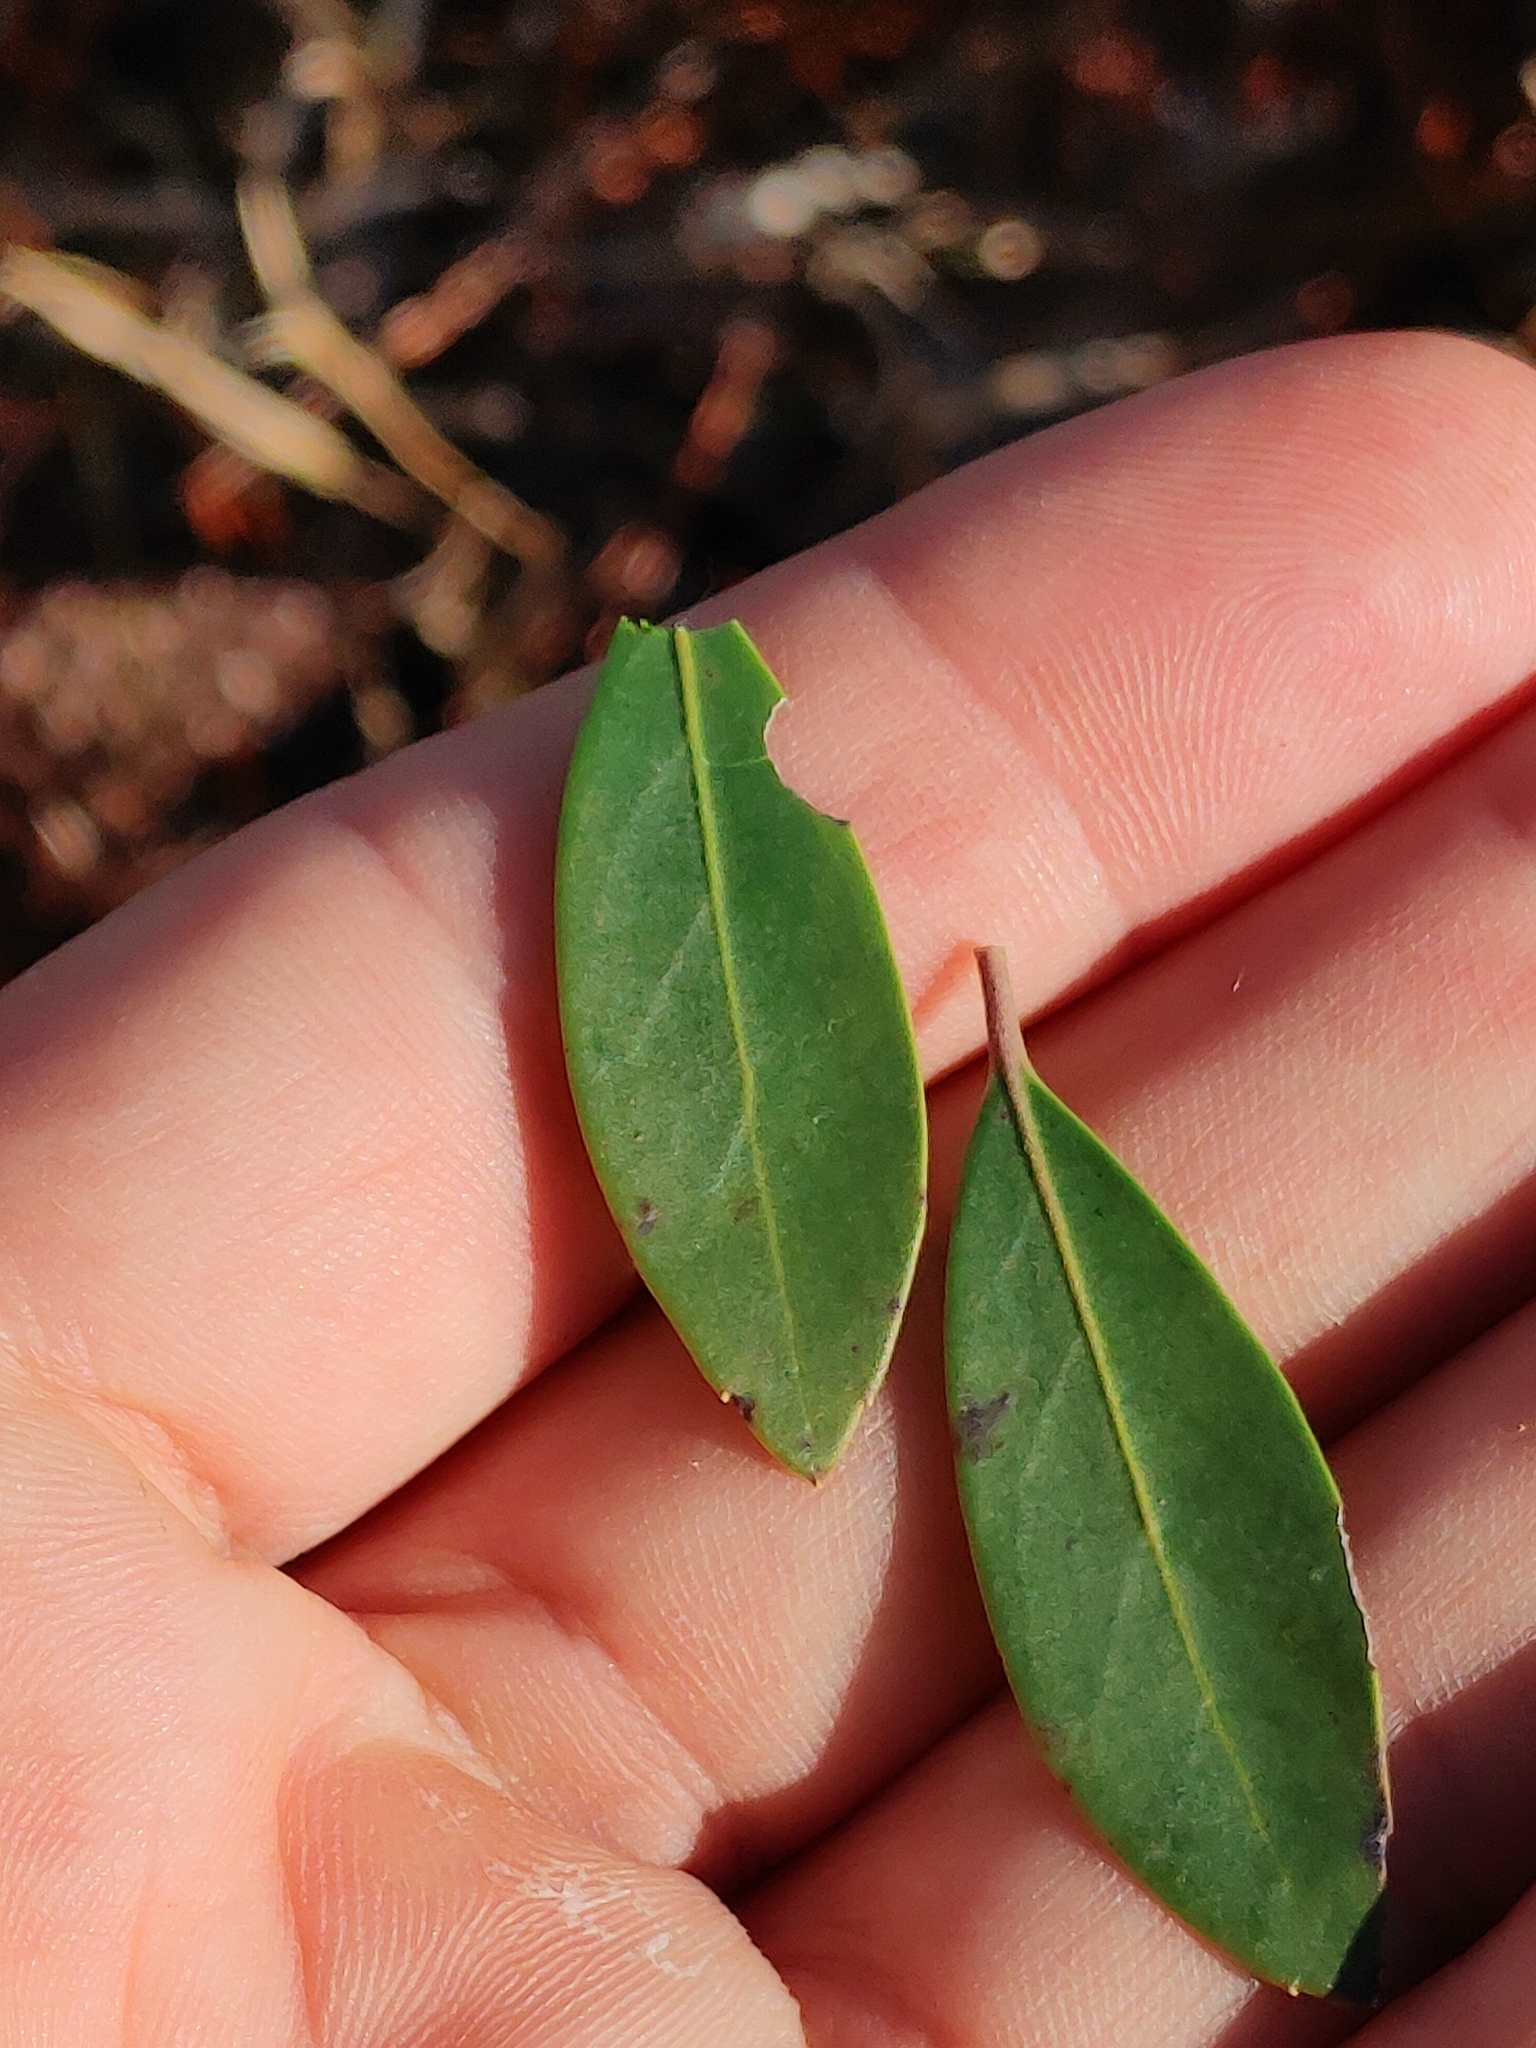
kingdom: Plantae
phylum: Tracheophyta
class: Magnoliopsida
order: Aquifoliales
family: Aquifoliaceae
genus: Ilex
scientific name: Ilex glabra
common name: Bitter gallberry
